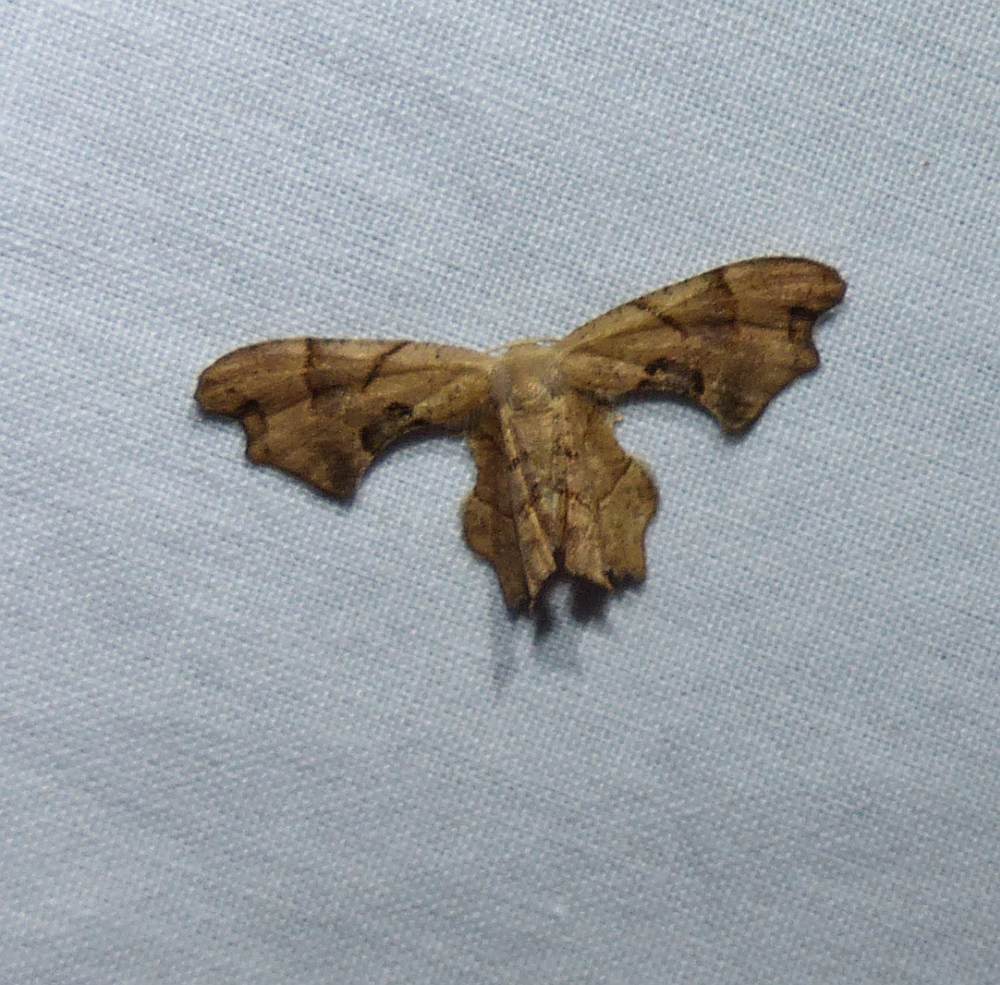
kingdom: Animalia
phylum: Arthropoda
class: Insecta
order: Lepidoptera
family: Uraniidae
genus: Epiplema
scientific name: Epiplema Calledapteryx dryopterata
